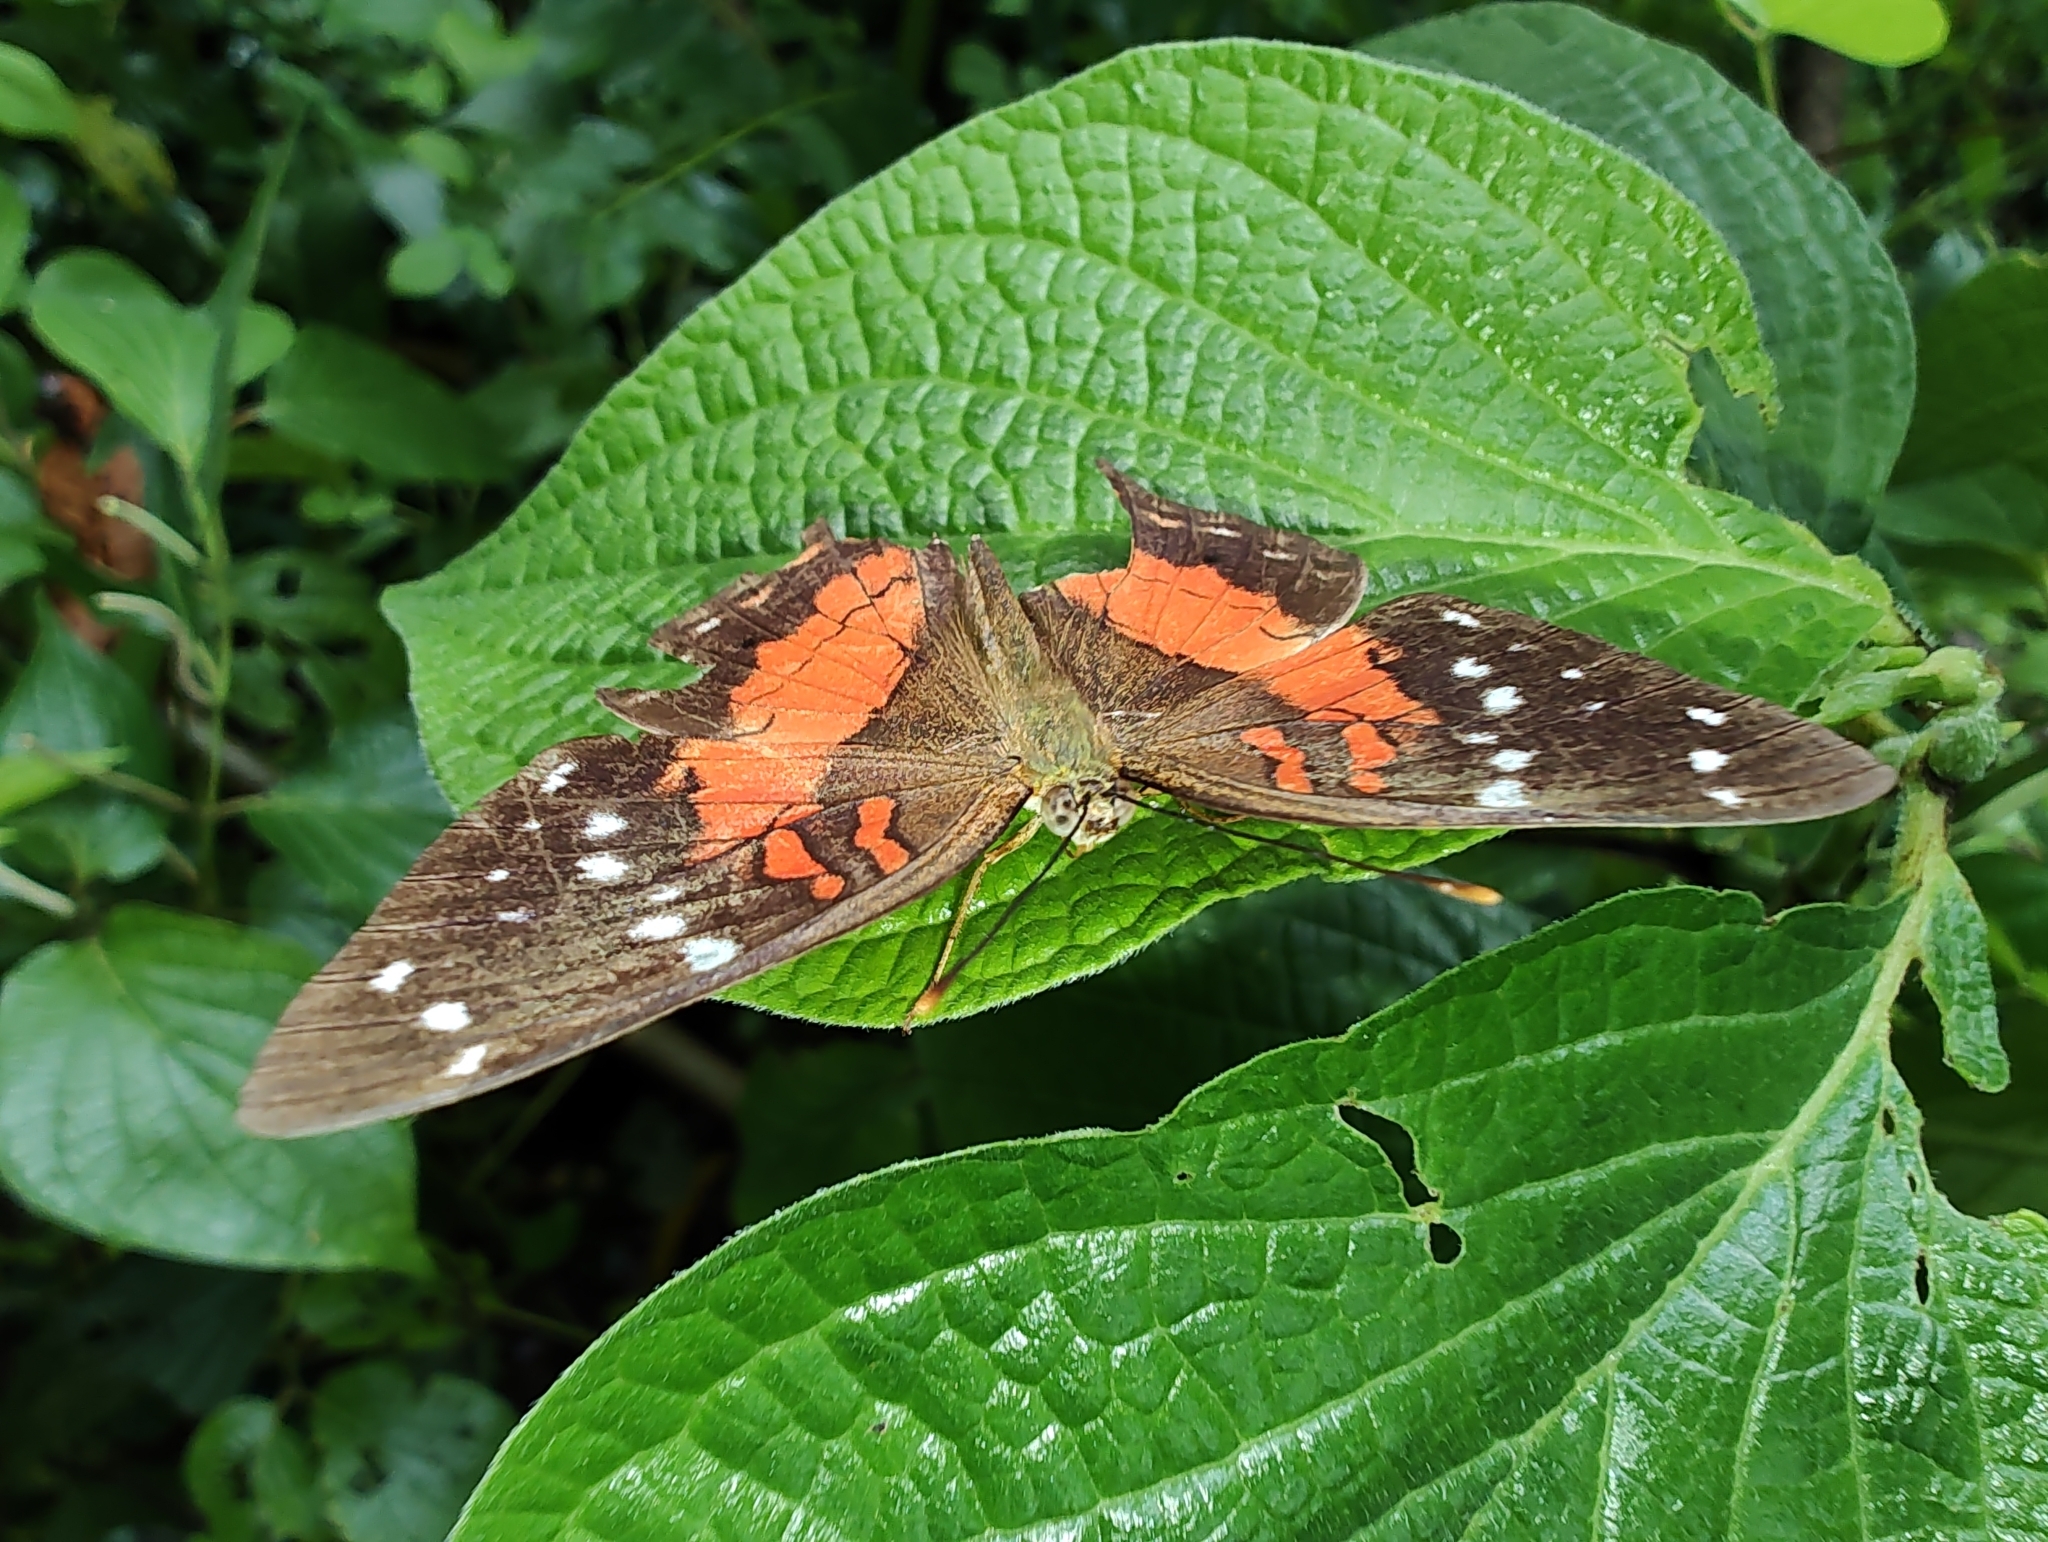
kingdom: Animalia
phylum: Arthropoda
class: Insecta
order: Lepidoptera
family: Nymphalidae
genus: Anartia
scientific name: Anartia amathea
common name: Red peacock
